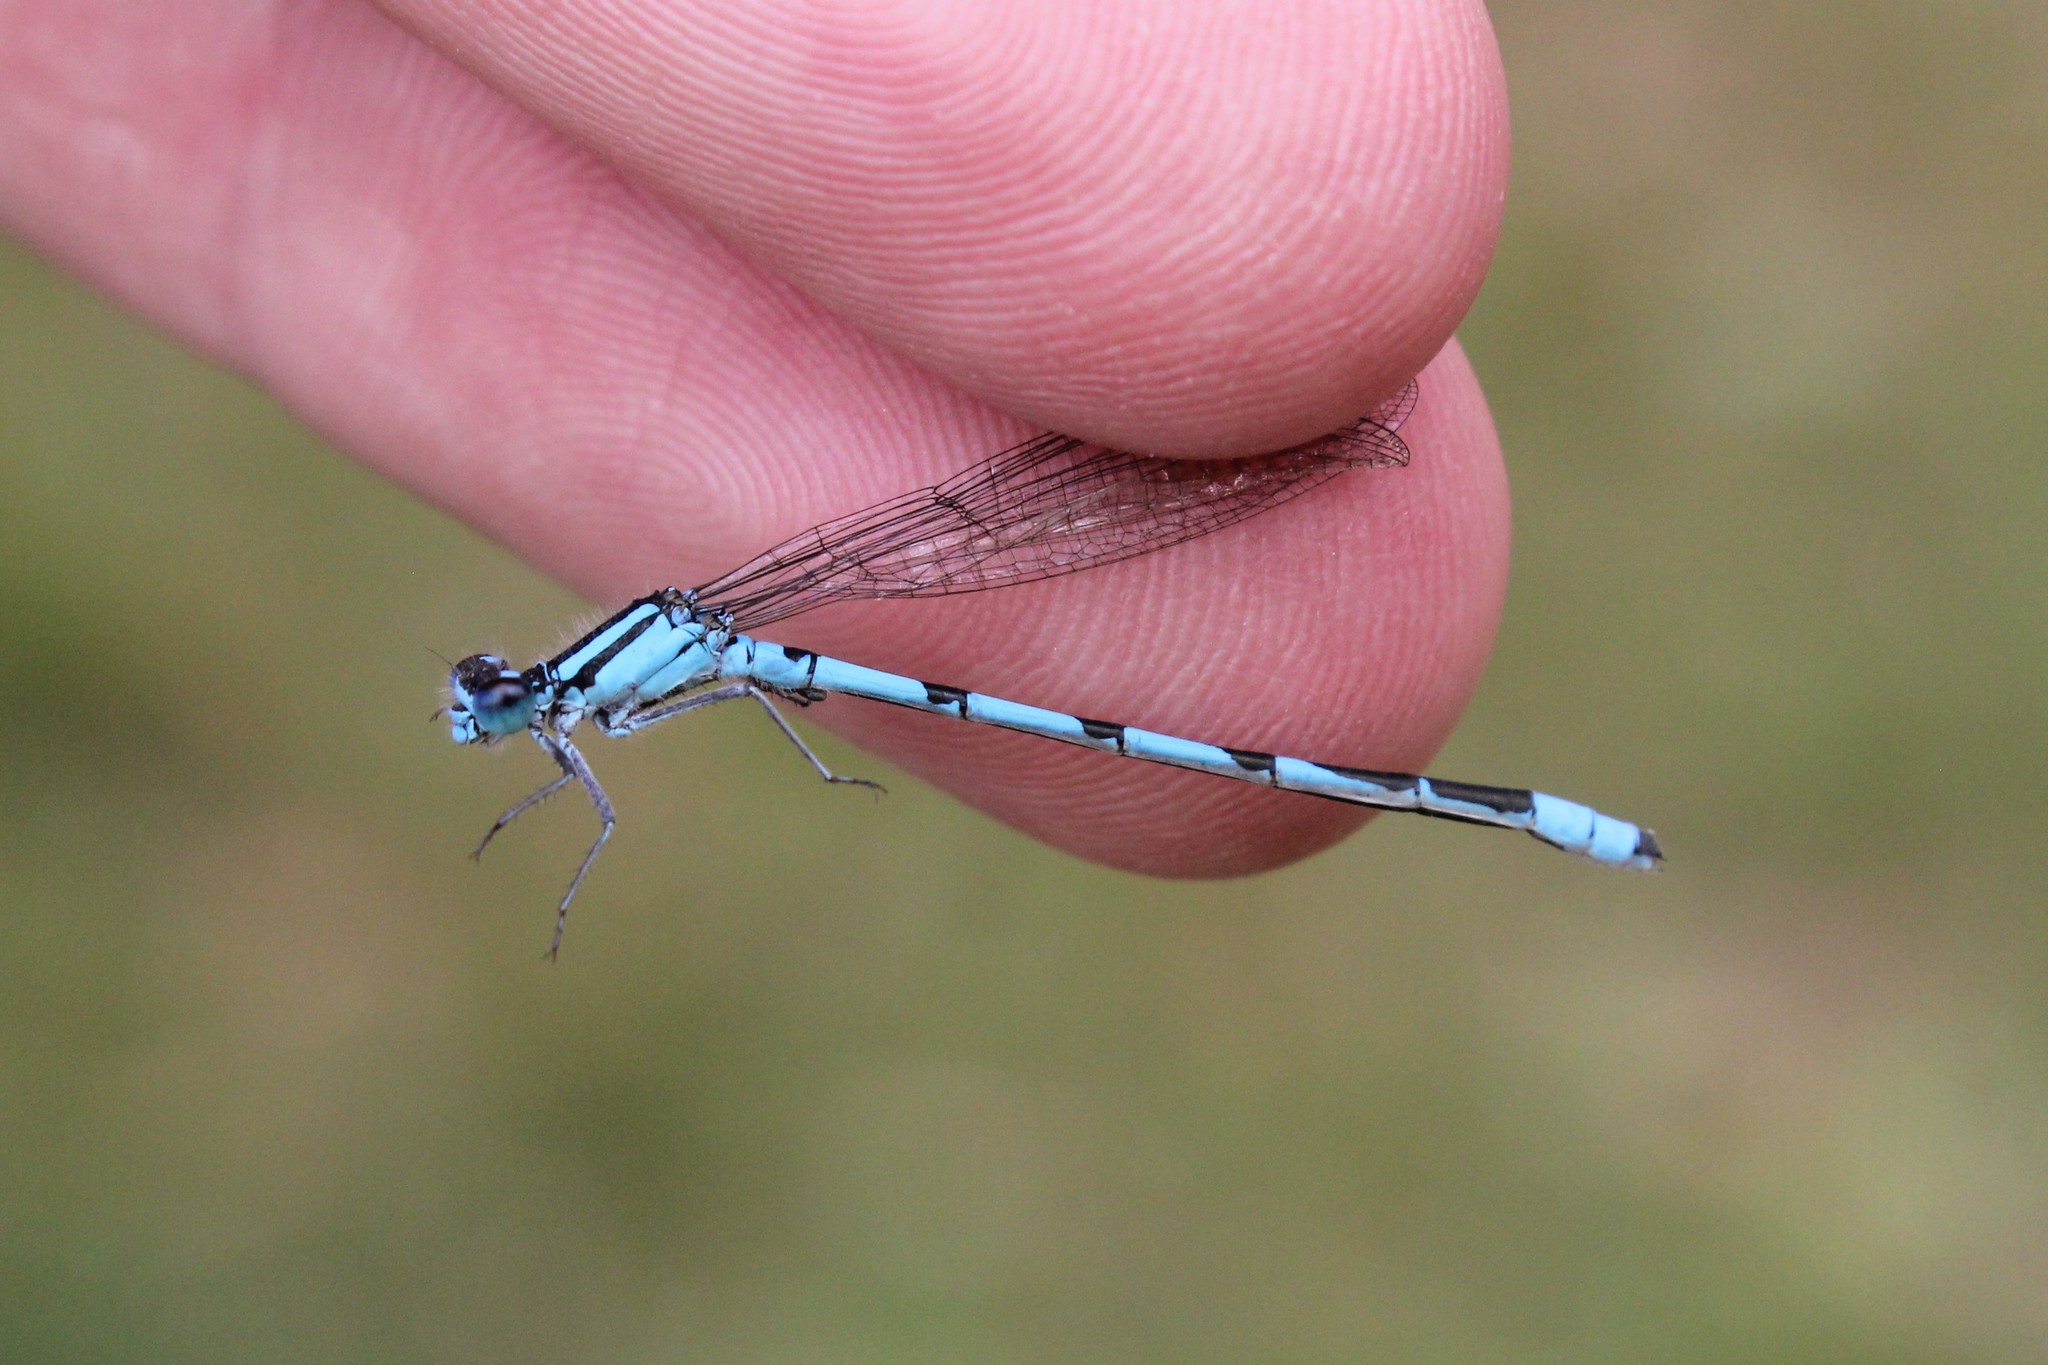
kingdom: Animalia
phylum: Arthropoda
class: Insecta
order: Odonata
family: Coenagrionidae
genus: Enallagma
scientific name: Enallagma hageni
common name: Hagen's bluet
